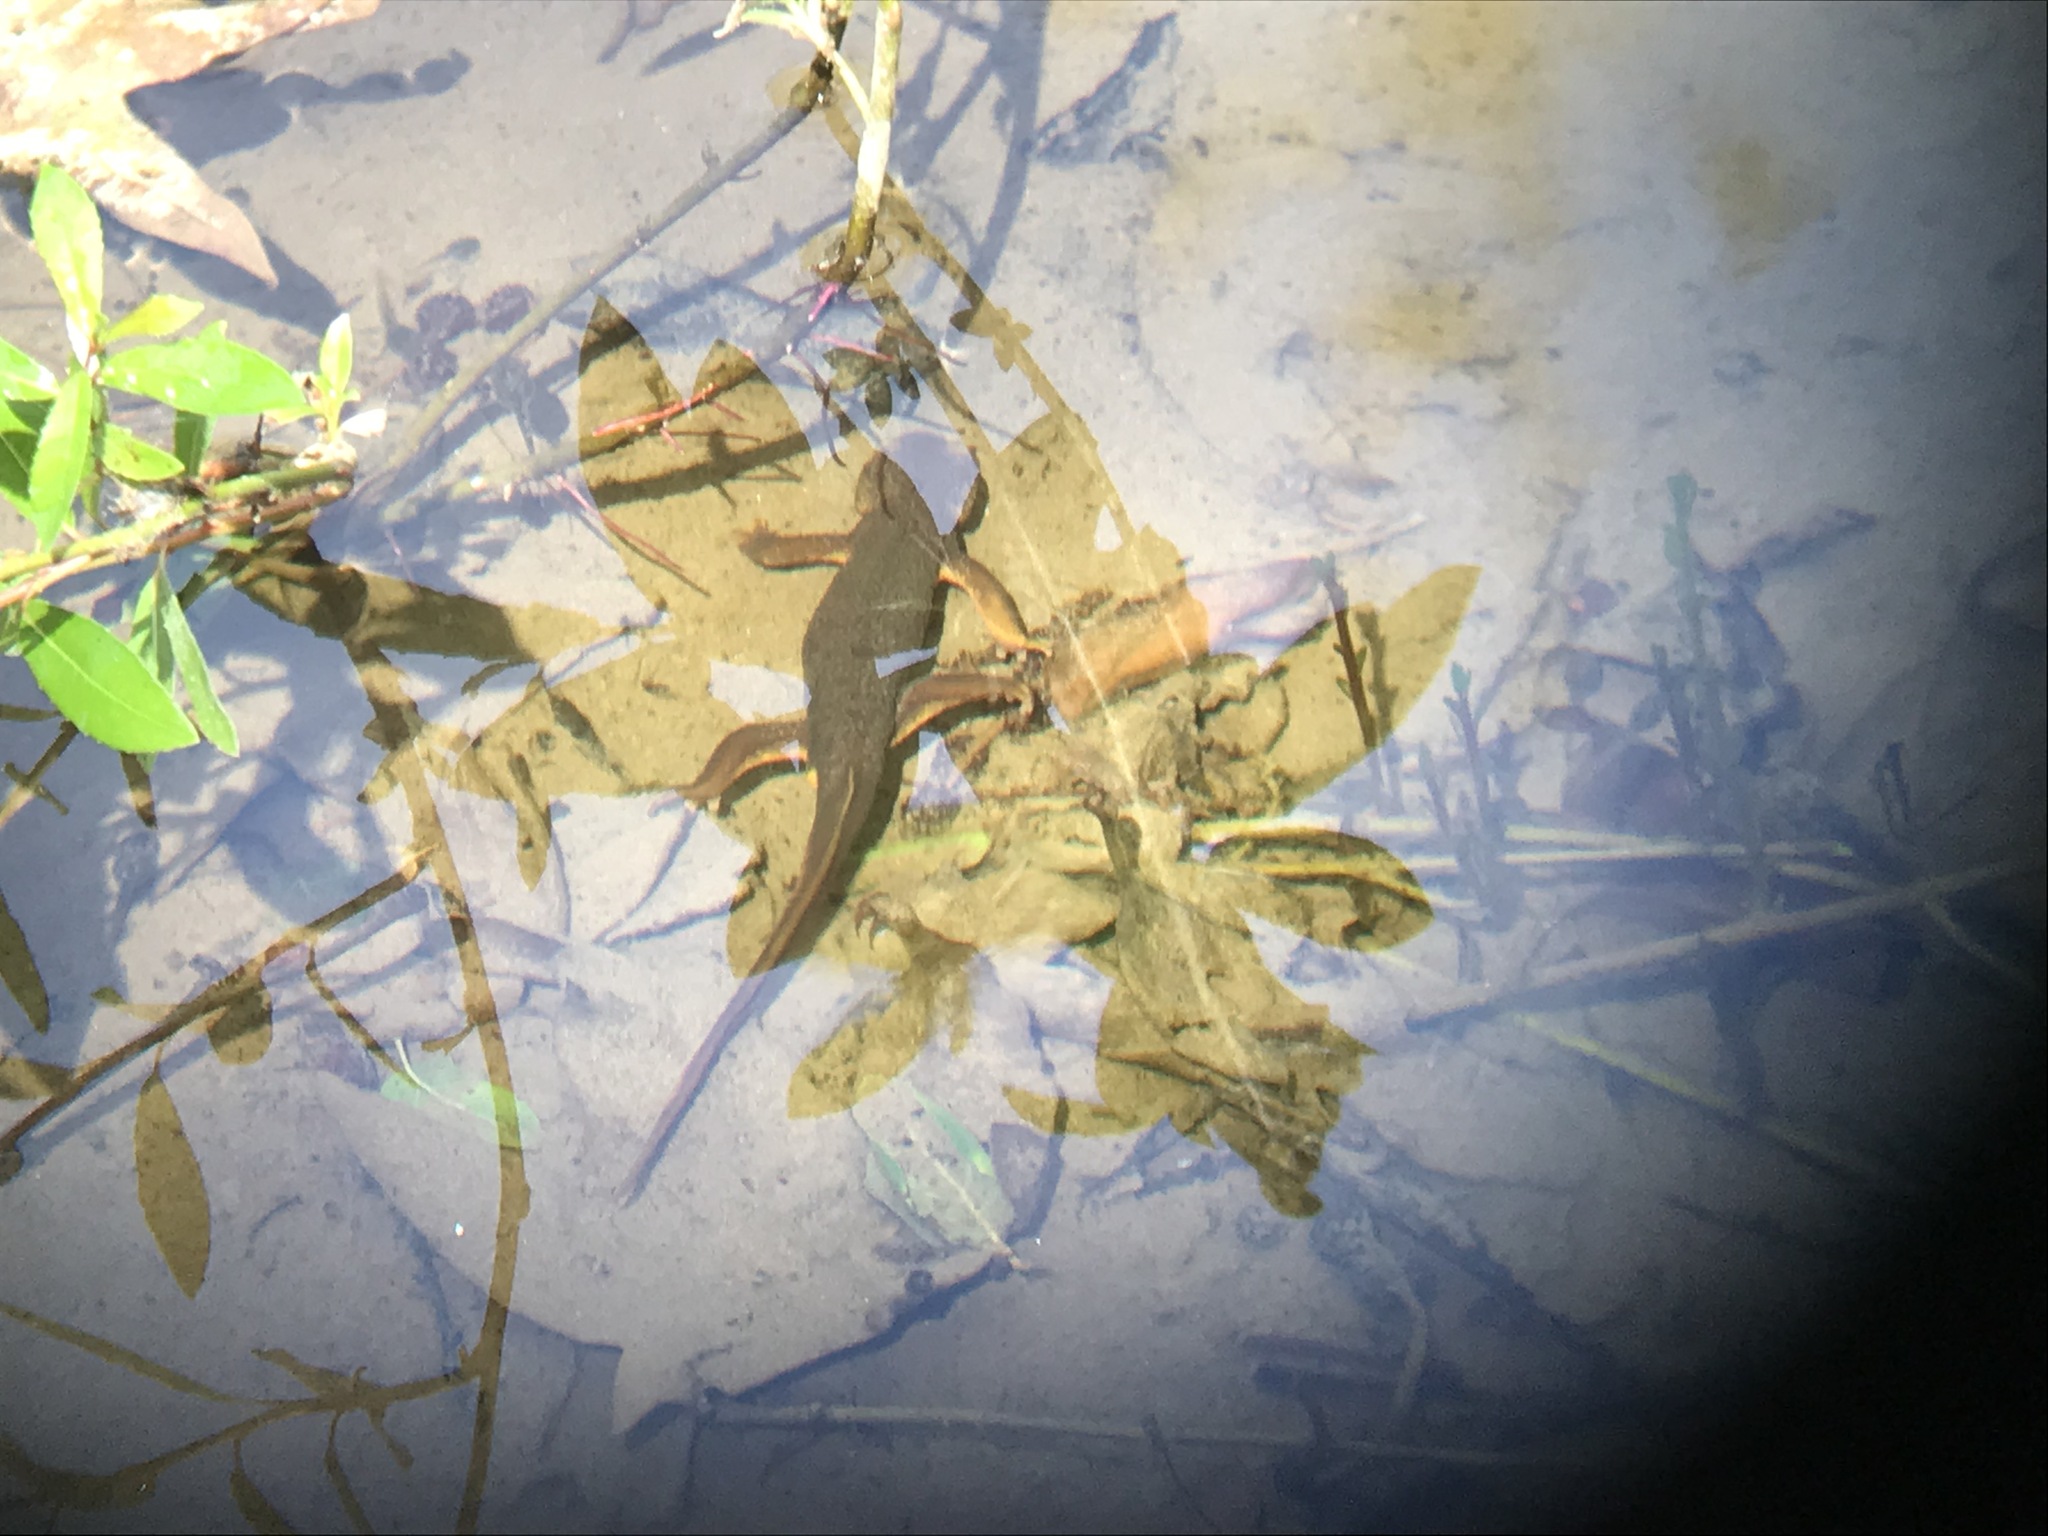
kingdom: Animalia
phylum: Chordata
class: Amphibia
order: Caudata
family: Salamandridae
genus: Taricha
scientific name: Taricha torosa
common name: California newt
